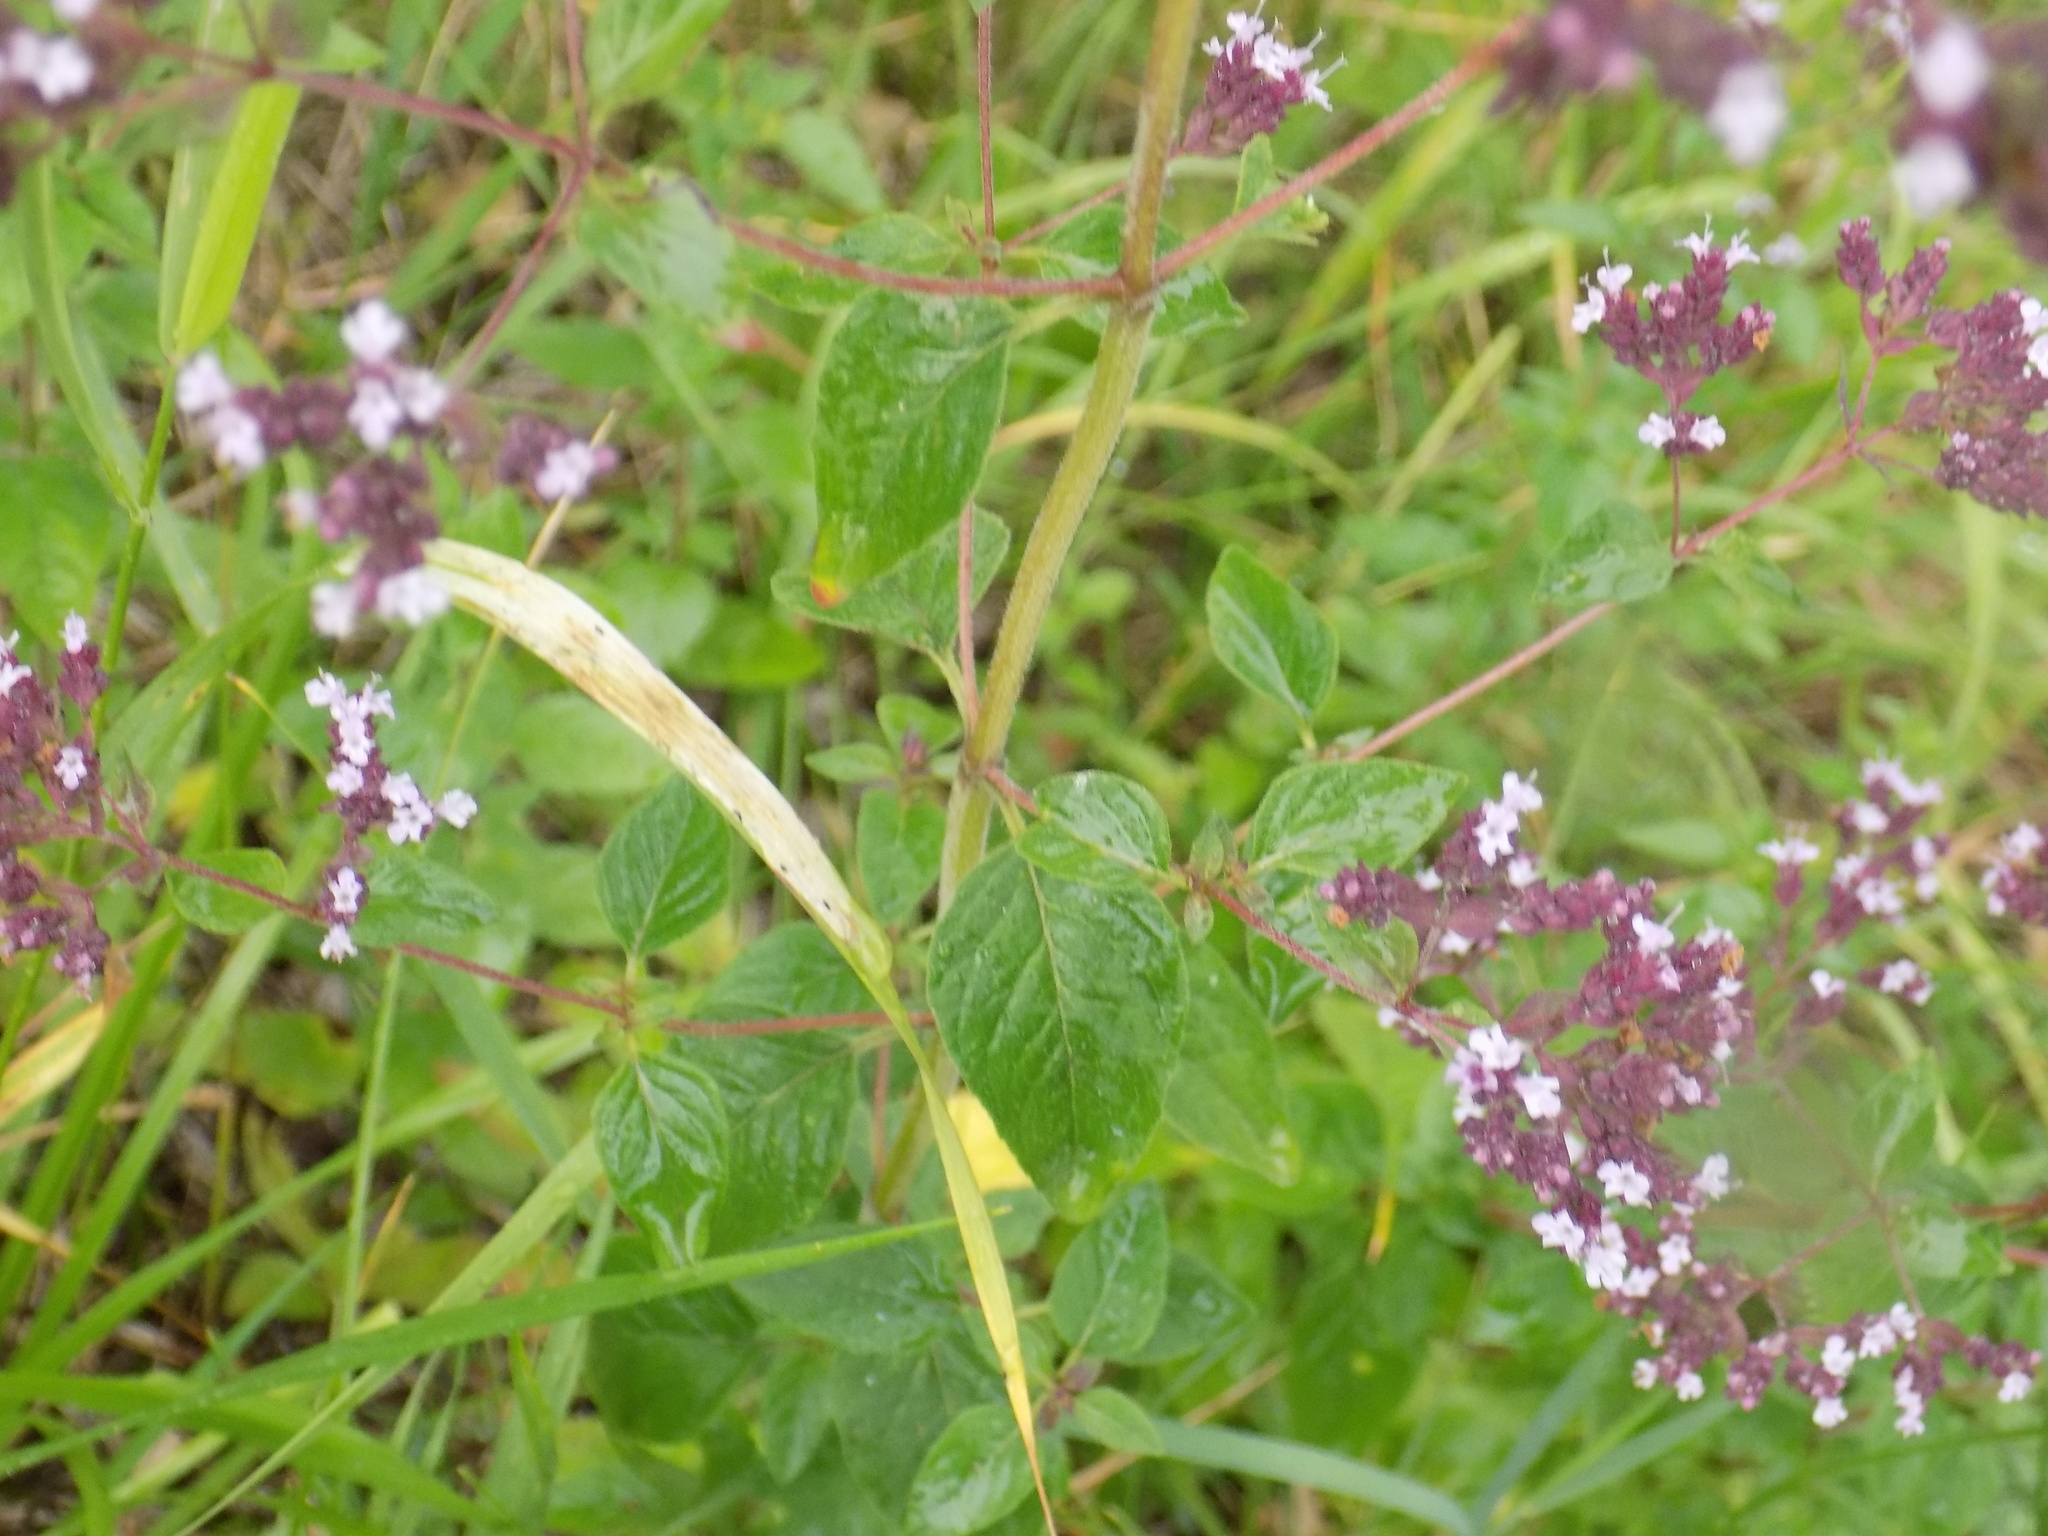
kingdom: Plantae
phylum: Tracheophyta
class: Magnoliopsida
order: Lamiales
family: Lamiaceae
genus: Origanum
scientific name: Origanum vulgare
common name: Wild marjoram
